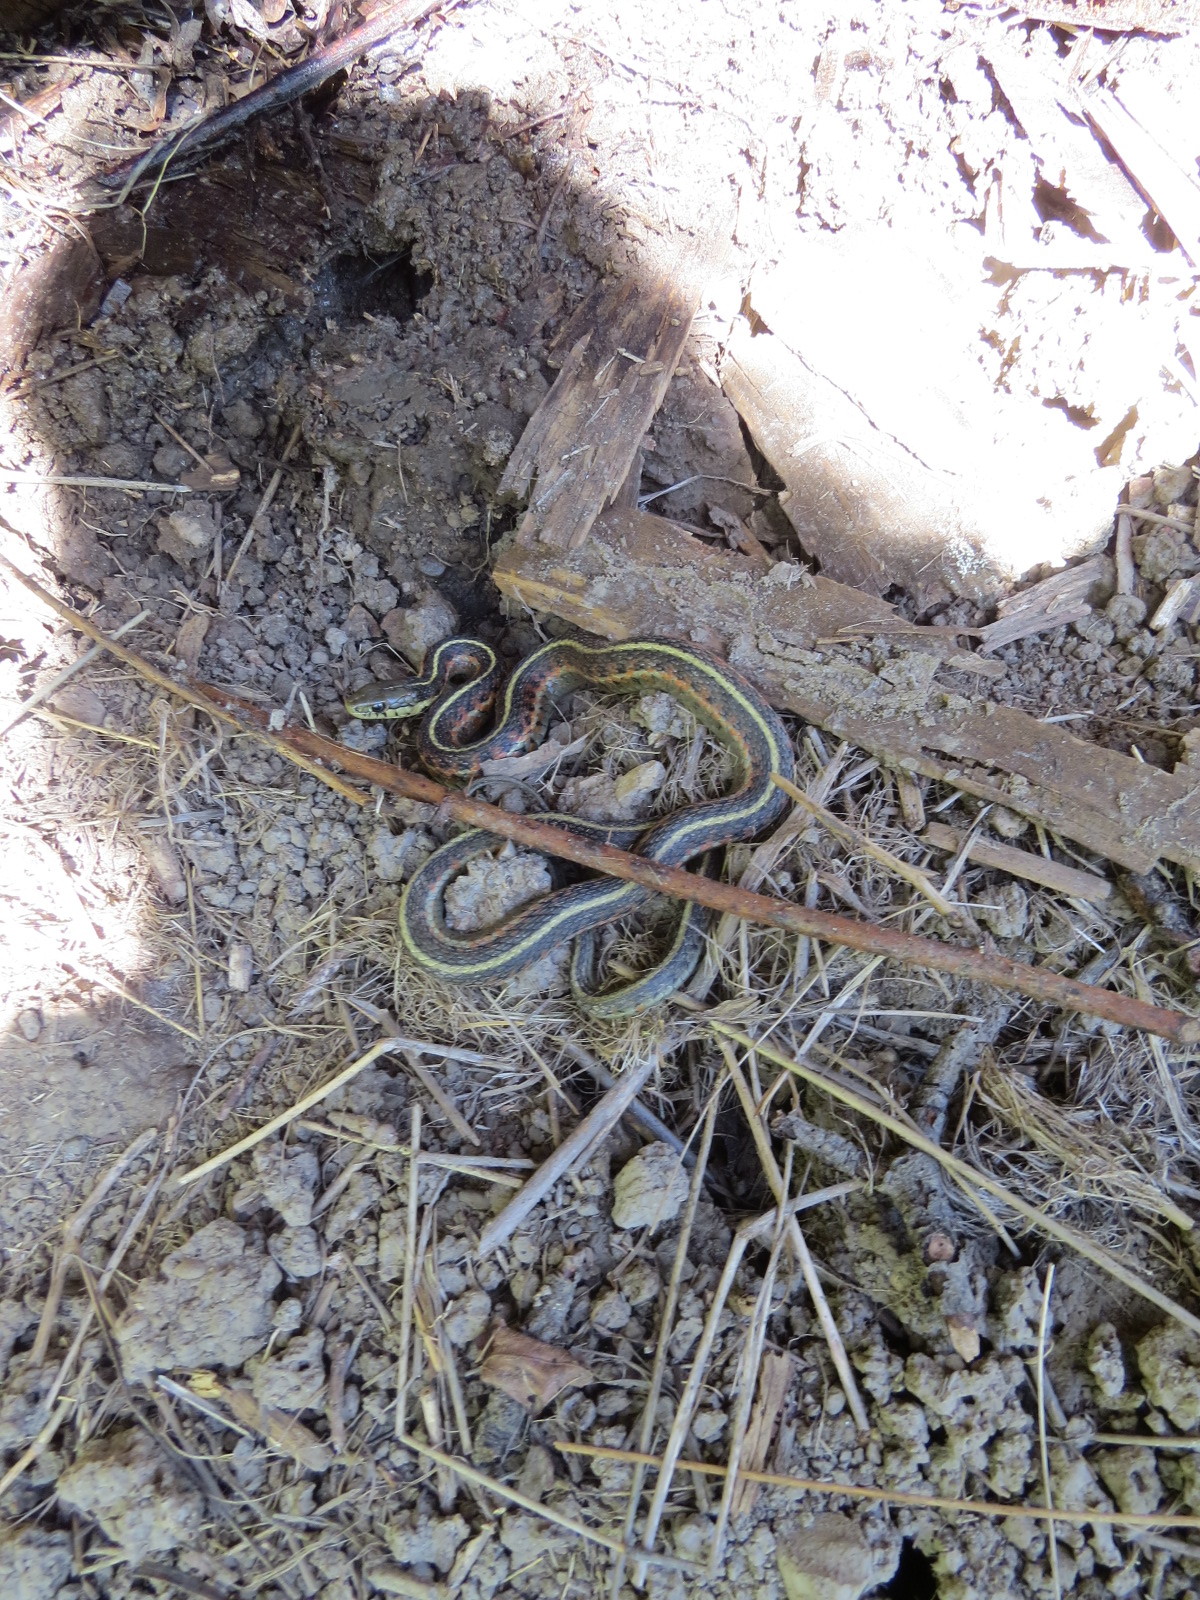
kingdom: Animalia
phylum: Chordata
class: Squamata
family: Colubridae
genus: Thamnophis
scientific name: Thamnophis elegans
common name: Western terrestrial garter snake
